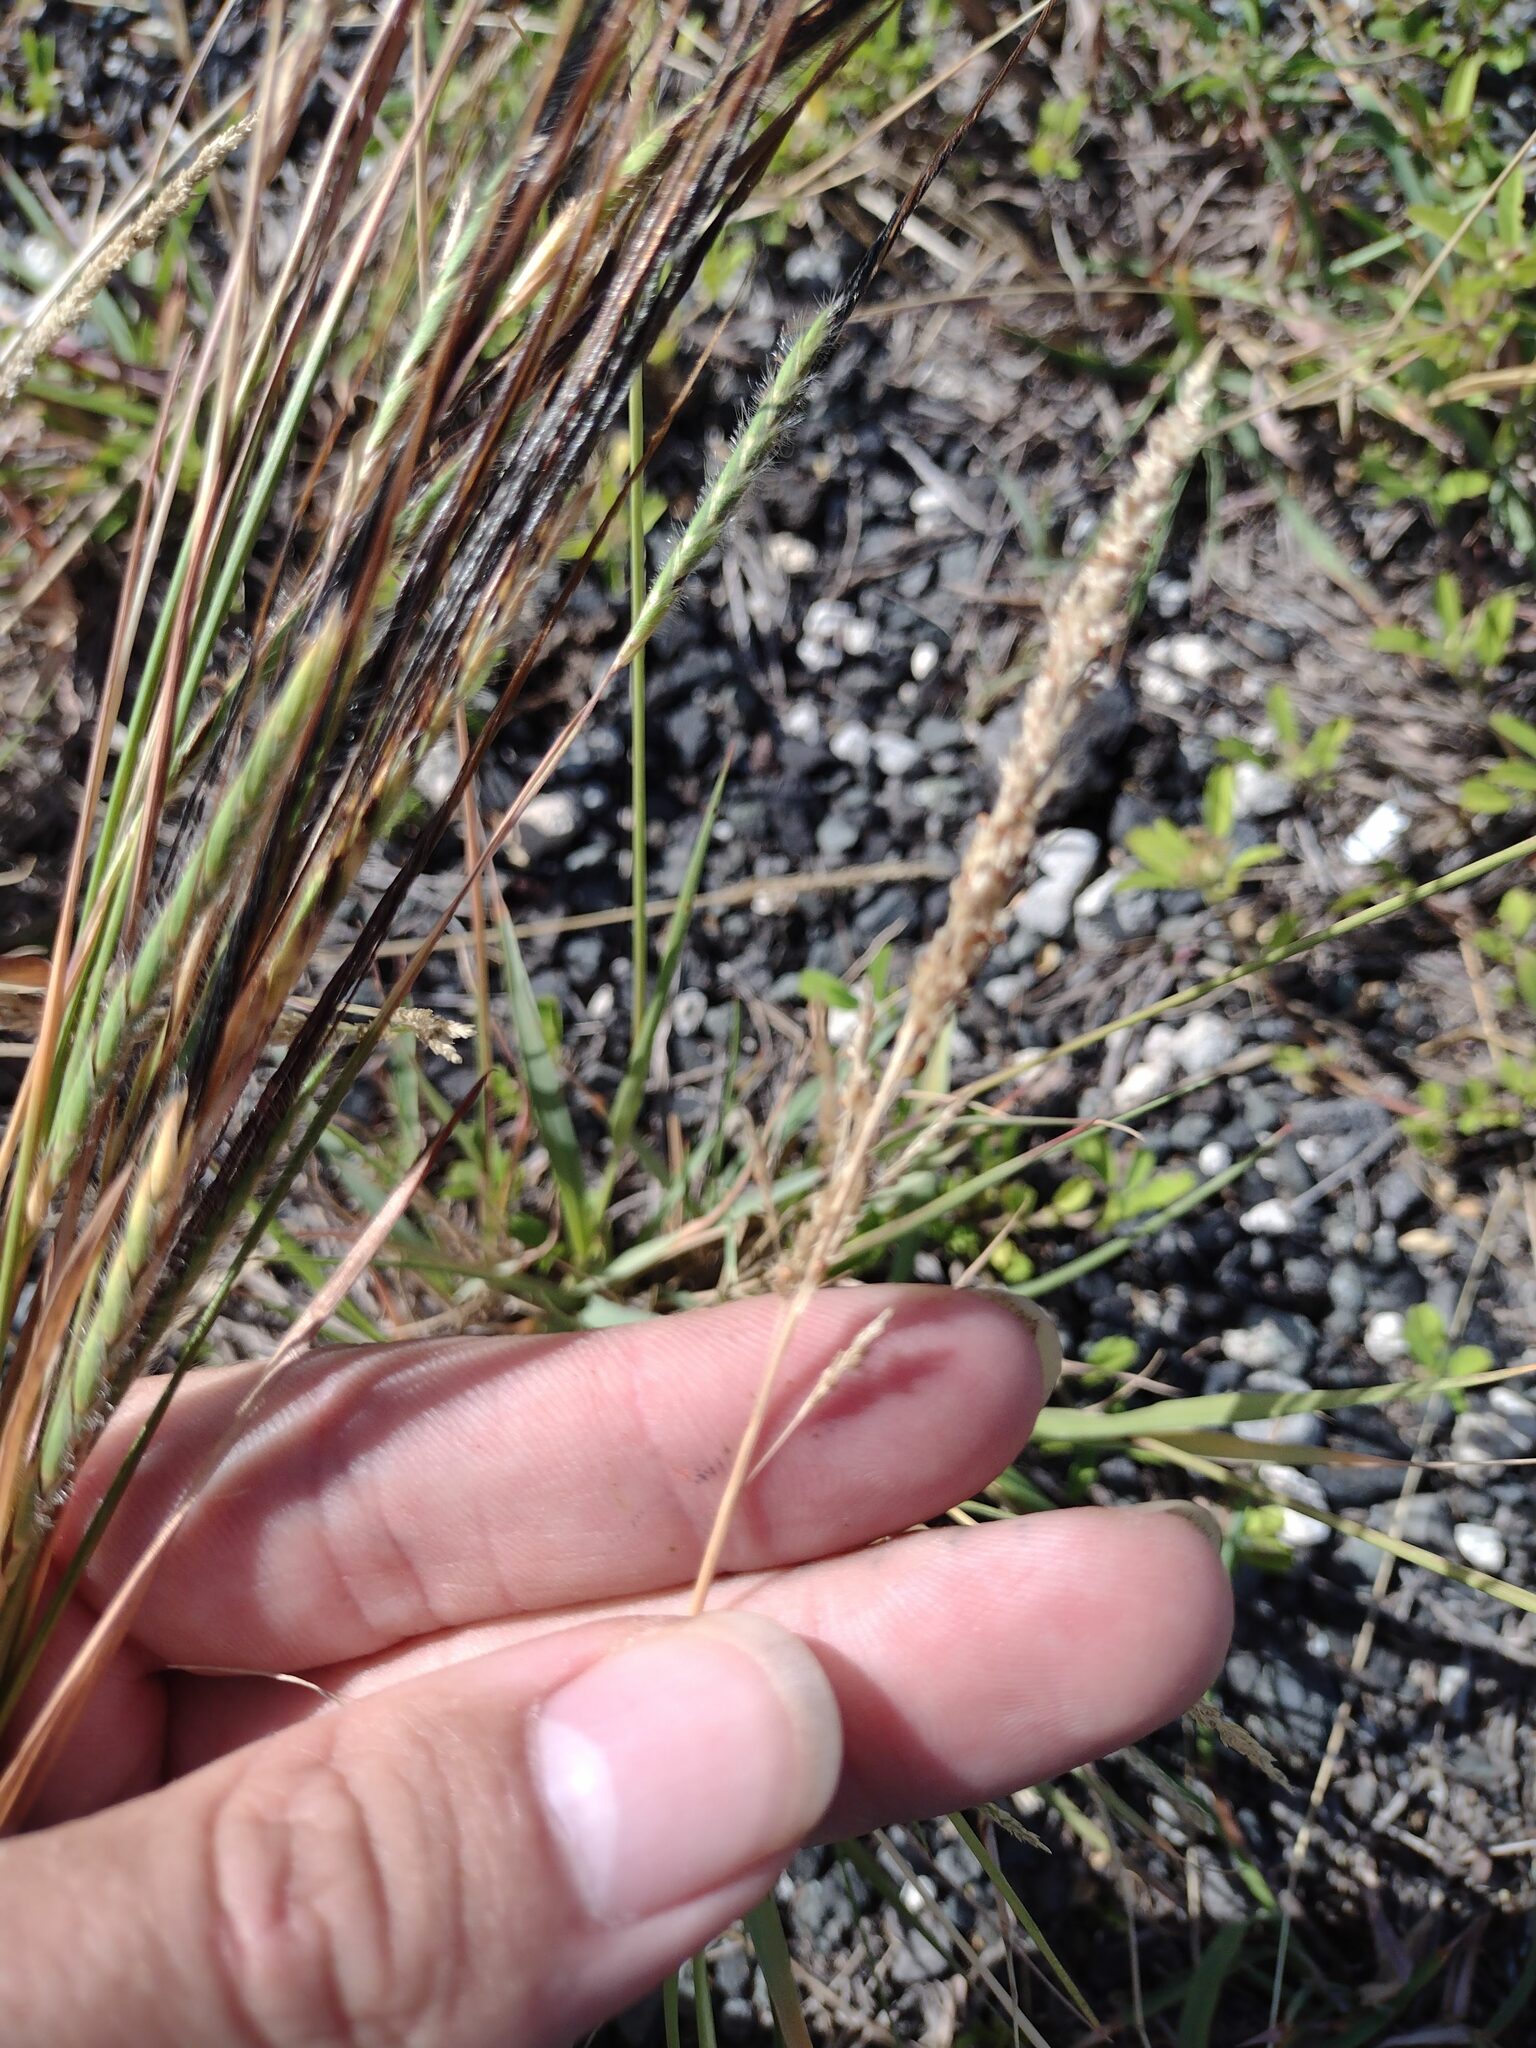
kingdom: Plantae
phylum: Tracheophyta
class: Liliopsida
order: Poales
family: Poaceae
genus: Sporobolus
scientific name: Sporobolus domingensis
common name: Coral dropseed
